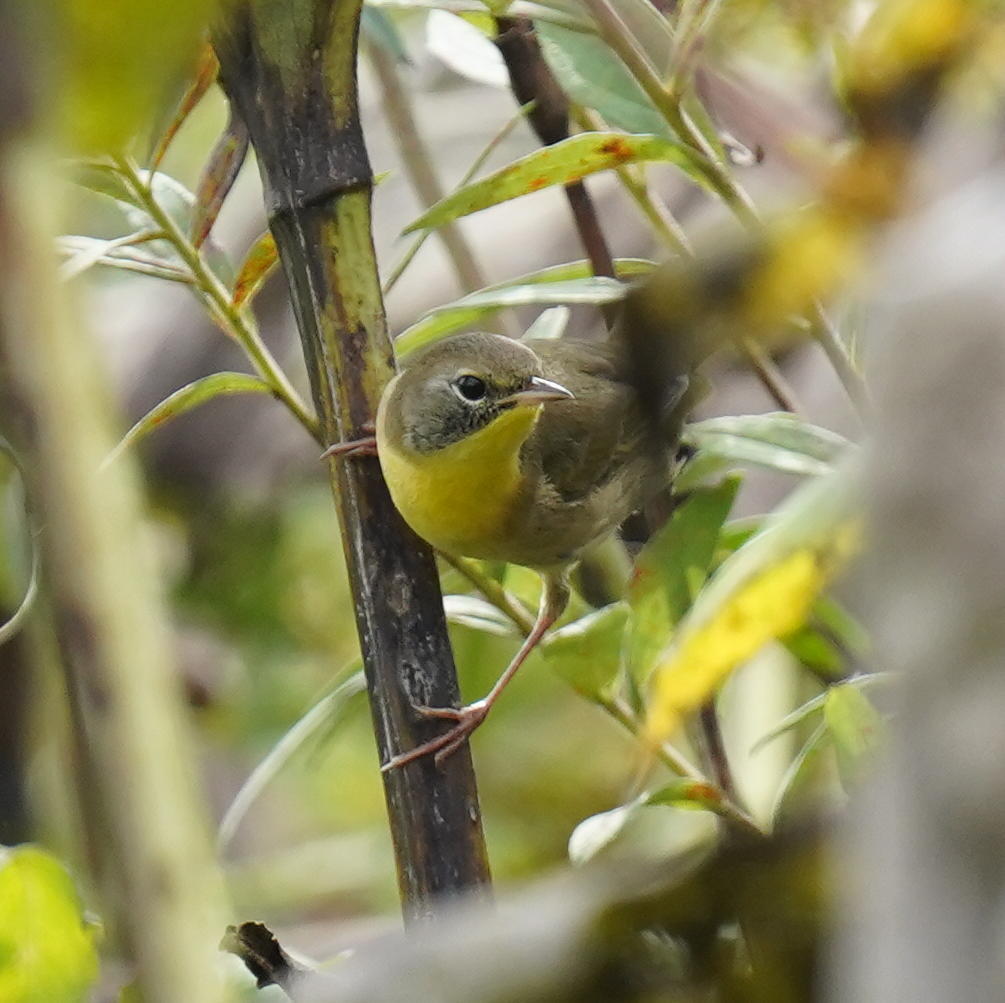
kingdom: Animalia
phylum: Chordata
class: Aves
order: Passeriformes
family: Parulidae
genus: Geothlypis
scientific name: Geothlypis trichas
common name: Common yellowthroat
